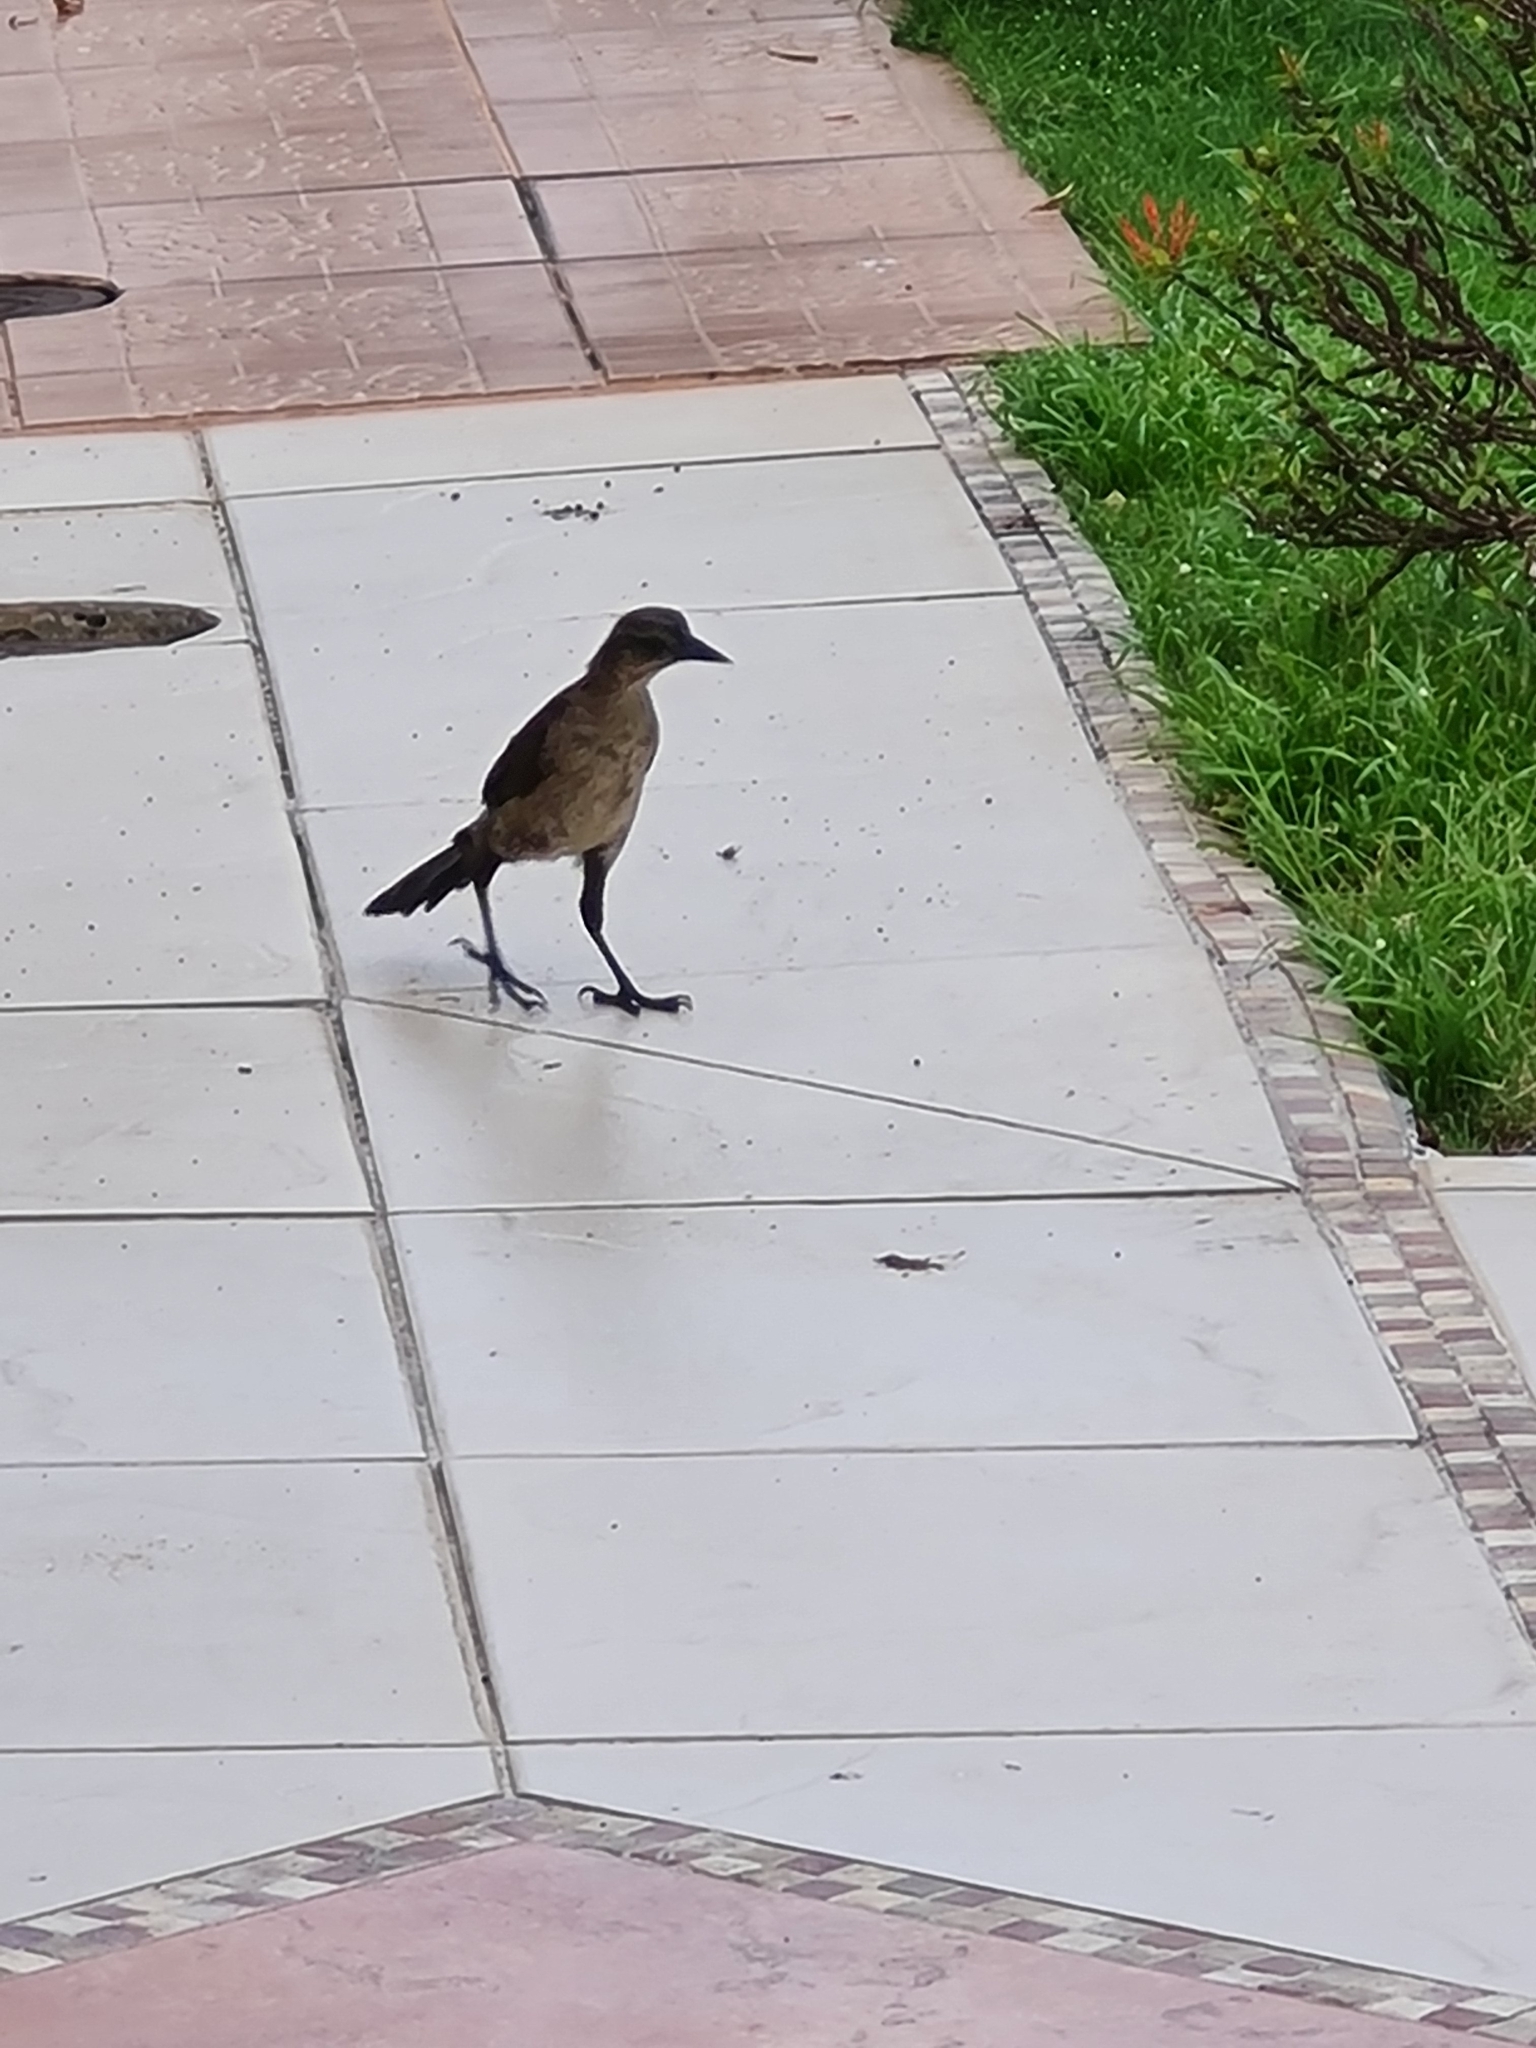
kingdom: Animalia
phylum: Chordata
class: Aves
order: Passeriformes
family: Icteridae
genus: Quiscalus
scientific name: Quiscalus mexicanus
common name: Great-tailed grackle
